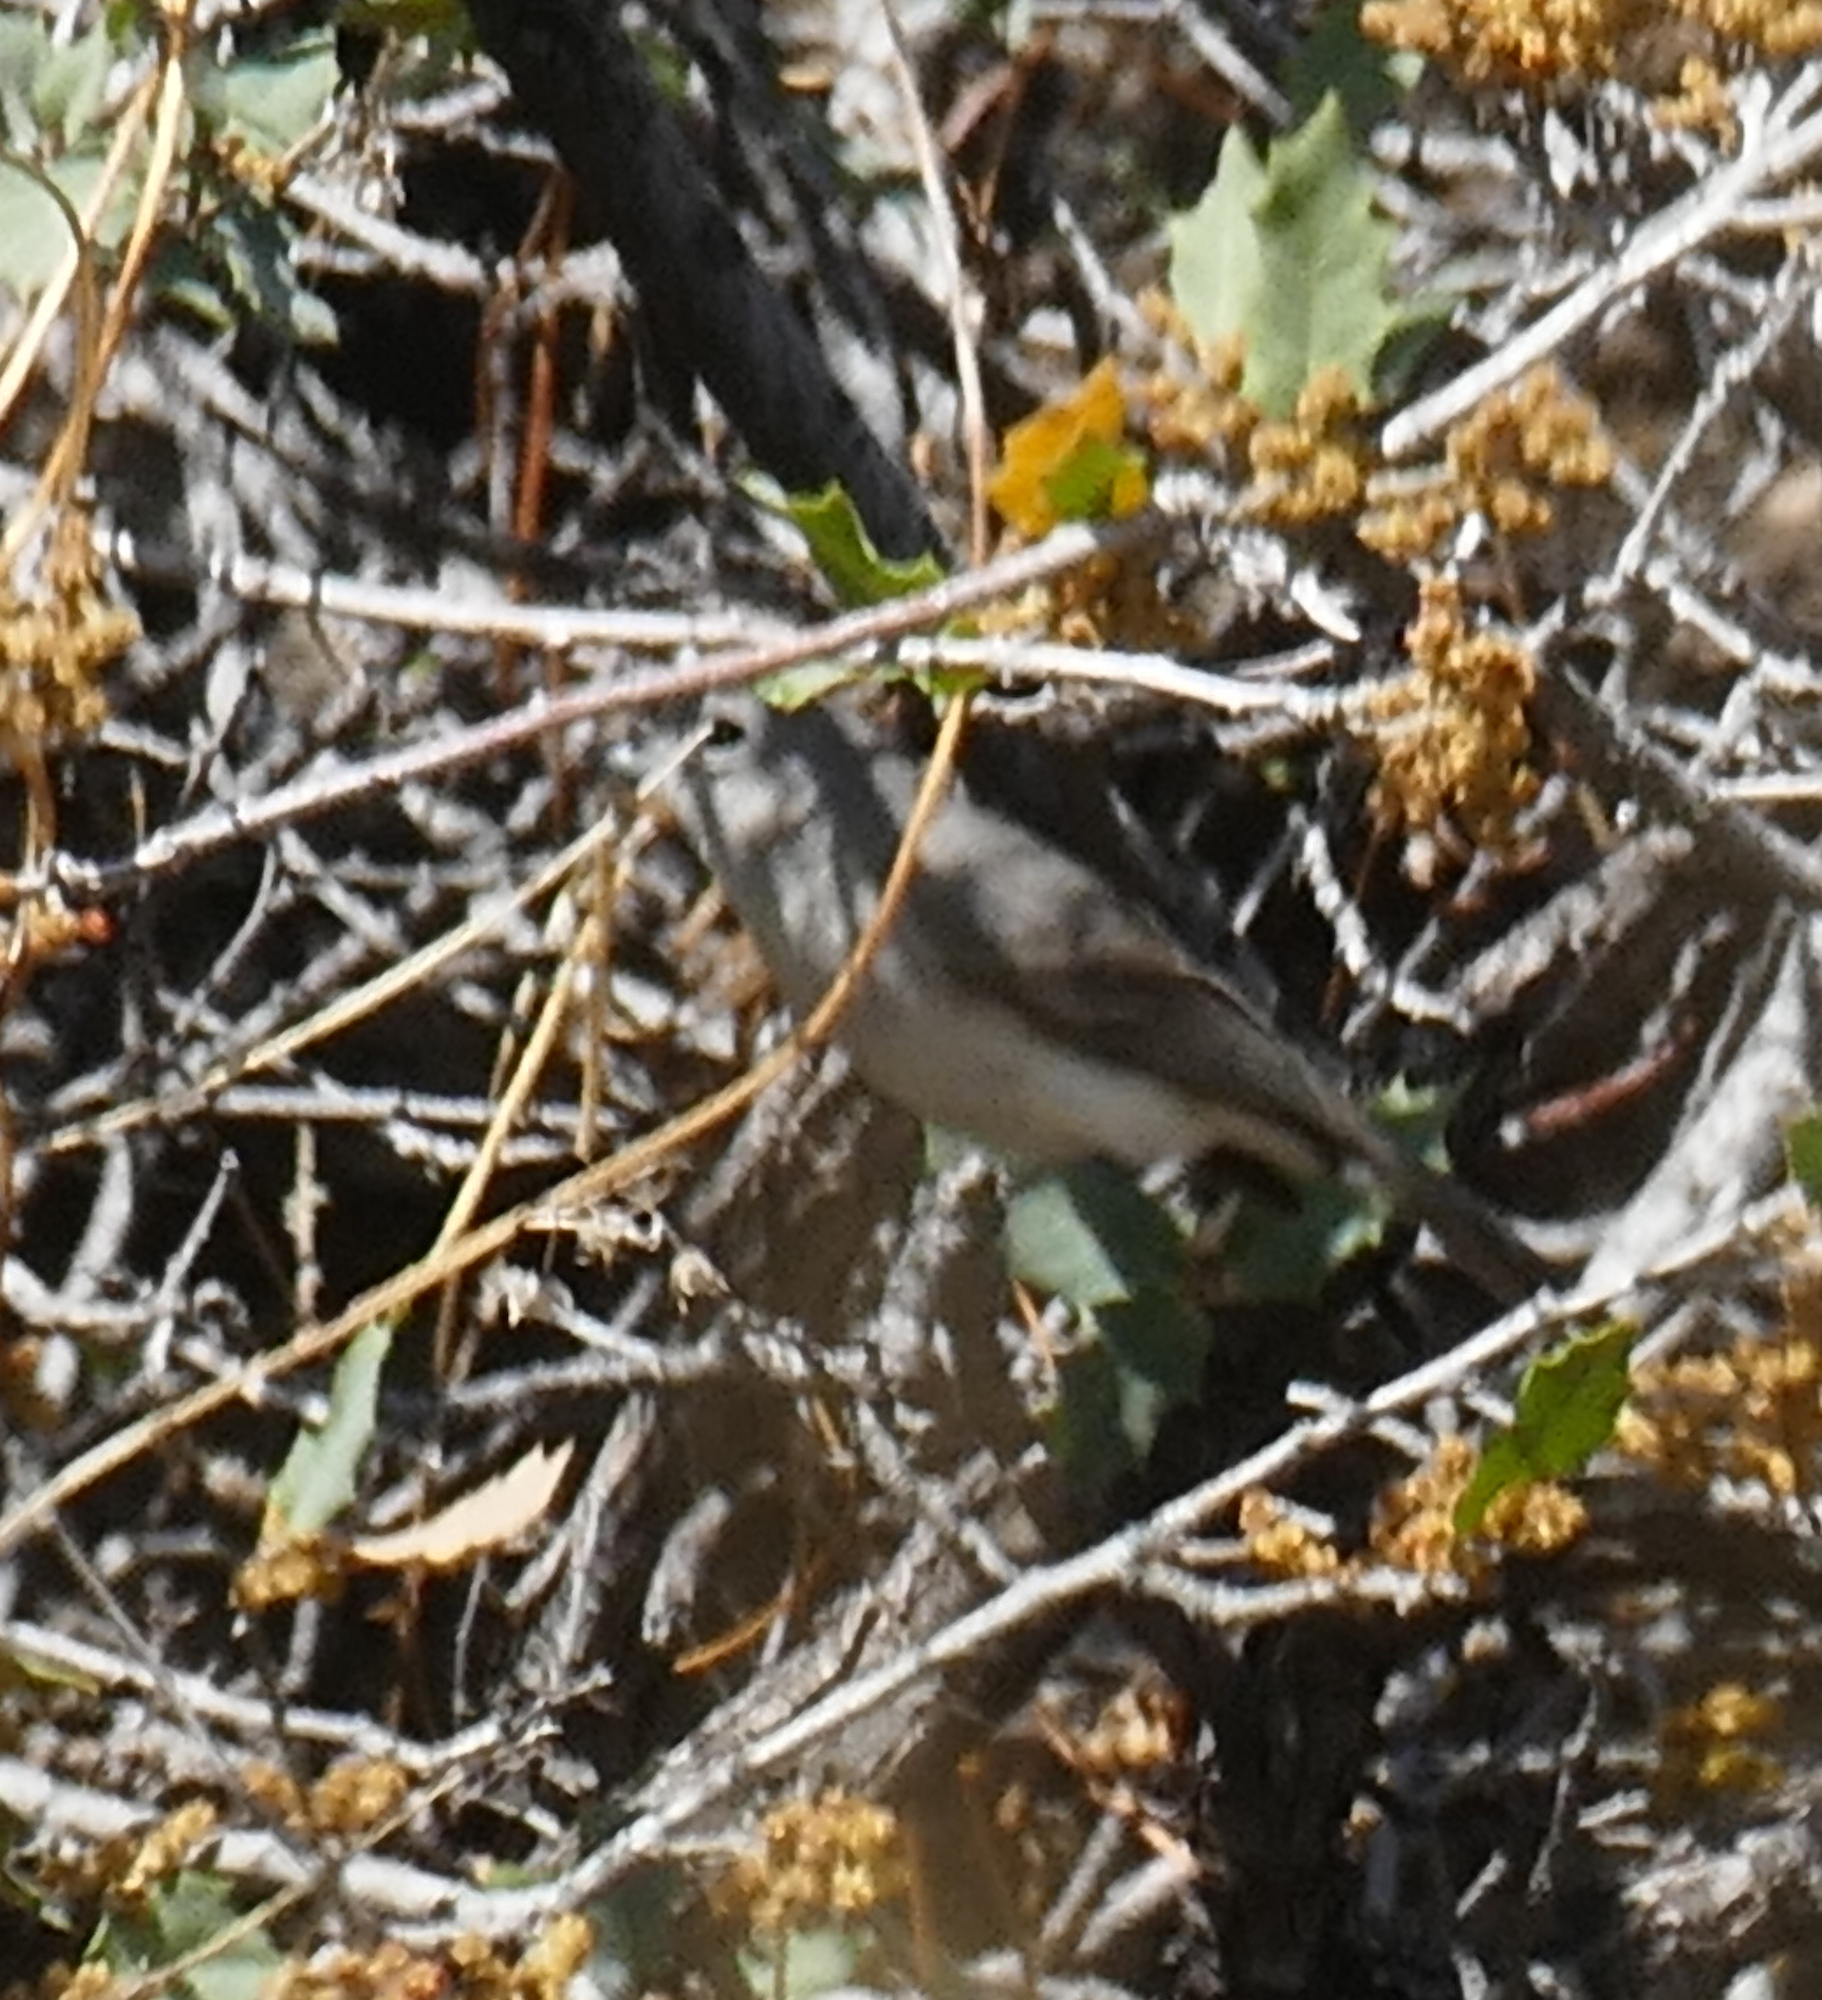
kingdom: Animalia
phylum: Chordata
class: Aves
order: Passeriformes
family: Vireonidae
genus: Vireo
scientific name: Vireo vicinior
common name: Gray vireo
